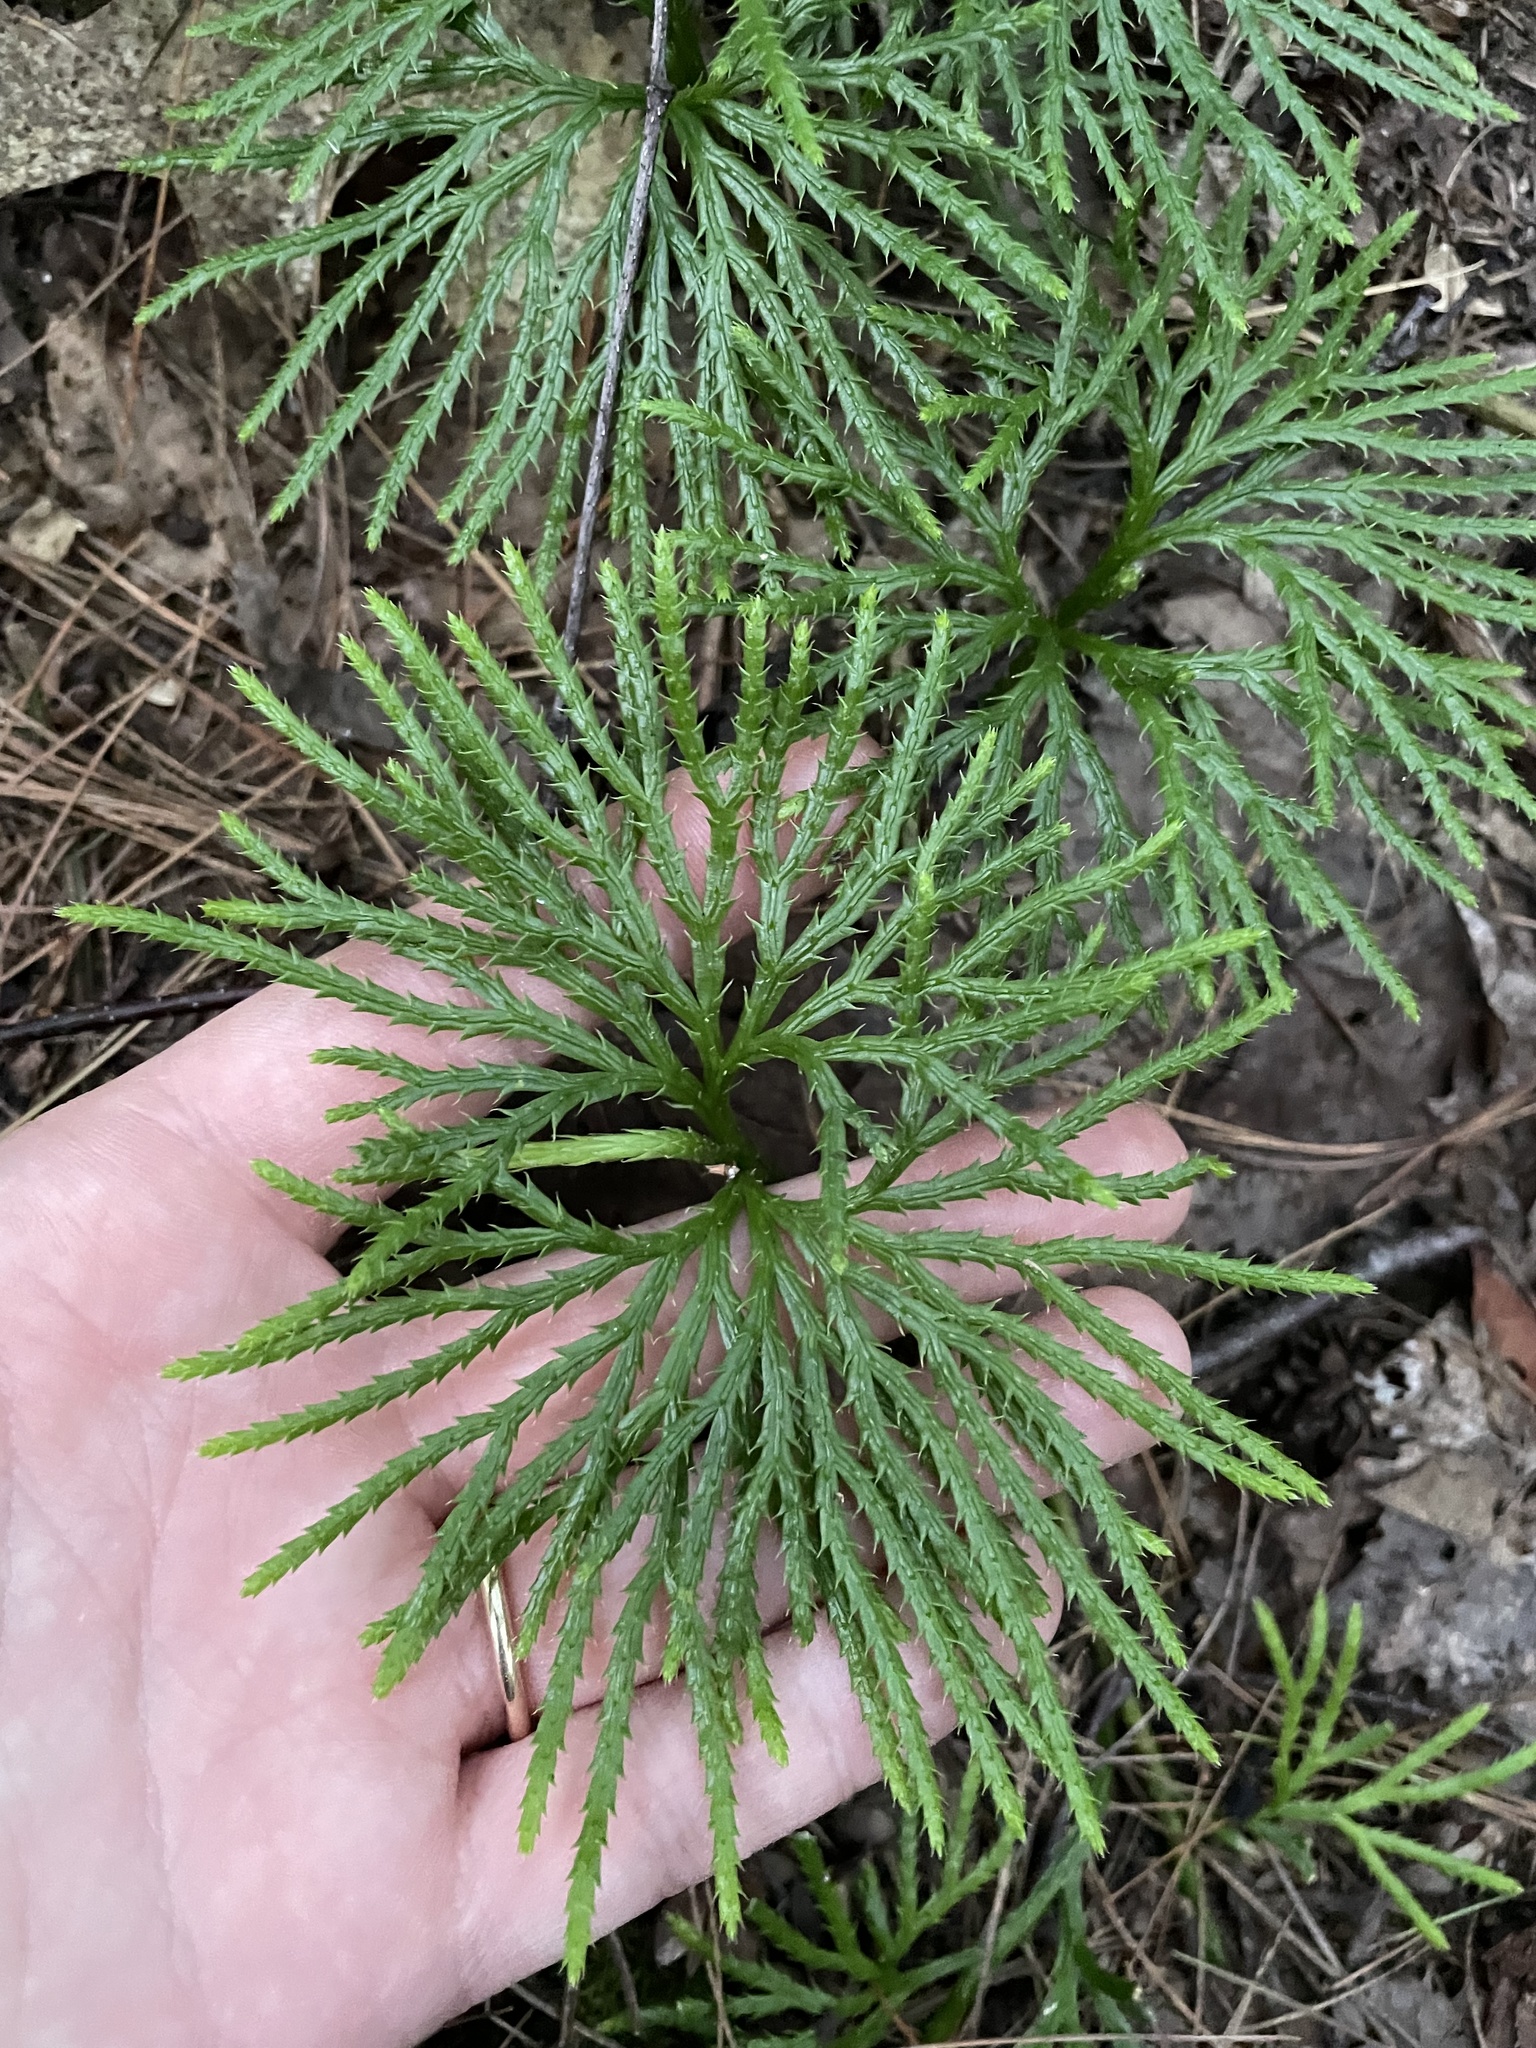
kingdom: Plantae
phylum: Tracheophyta
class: Lycopodiopsida
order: Lycopodiales
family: Lycopodiaceae
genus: Diphasiastrum
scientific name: Diphasiastrum digitatum
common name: Southern running-pine
